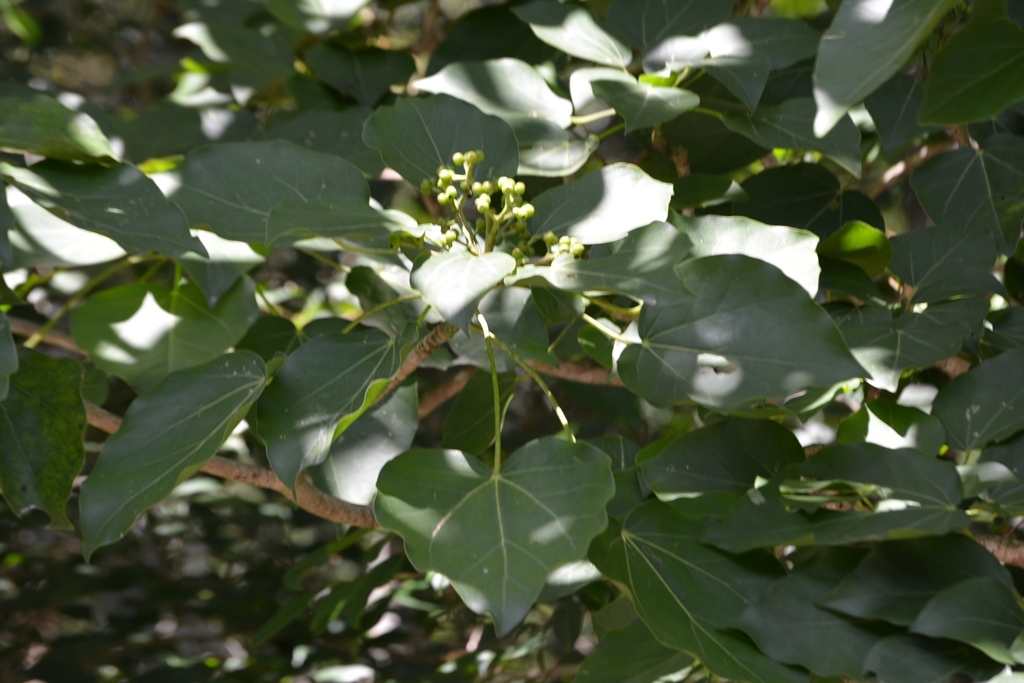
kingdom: Plantae
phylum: Tracheophyta
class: Magnoliopsida
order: Apiales
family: Araliaceae
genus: Oreopanax
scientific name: Oreopanax platyphyllus
